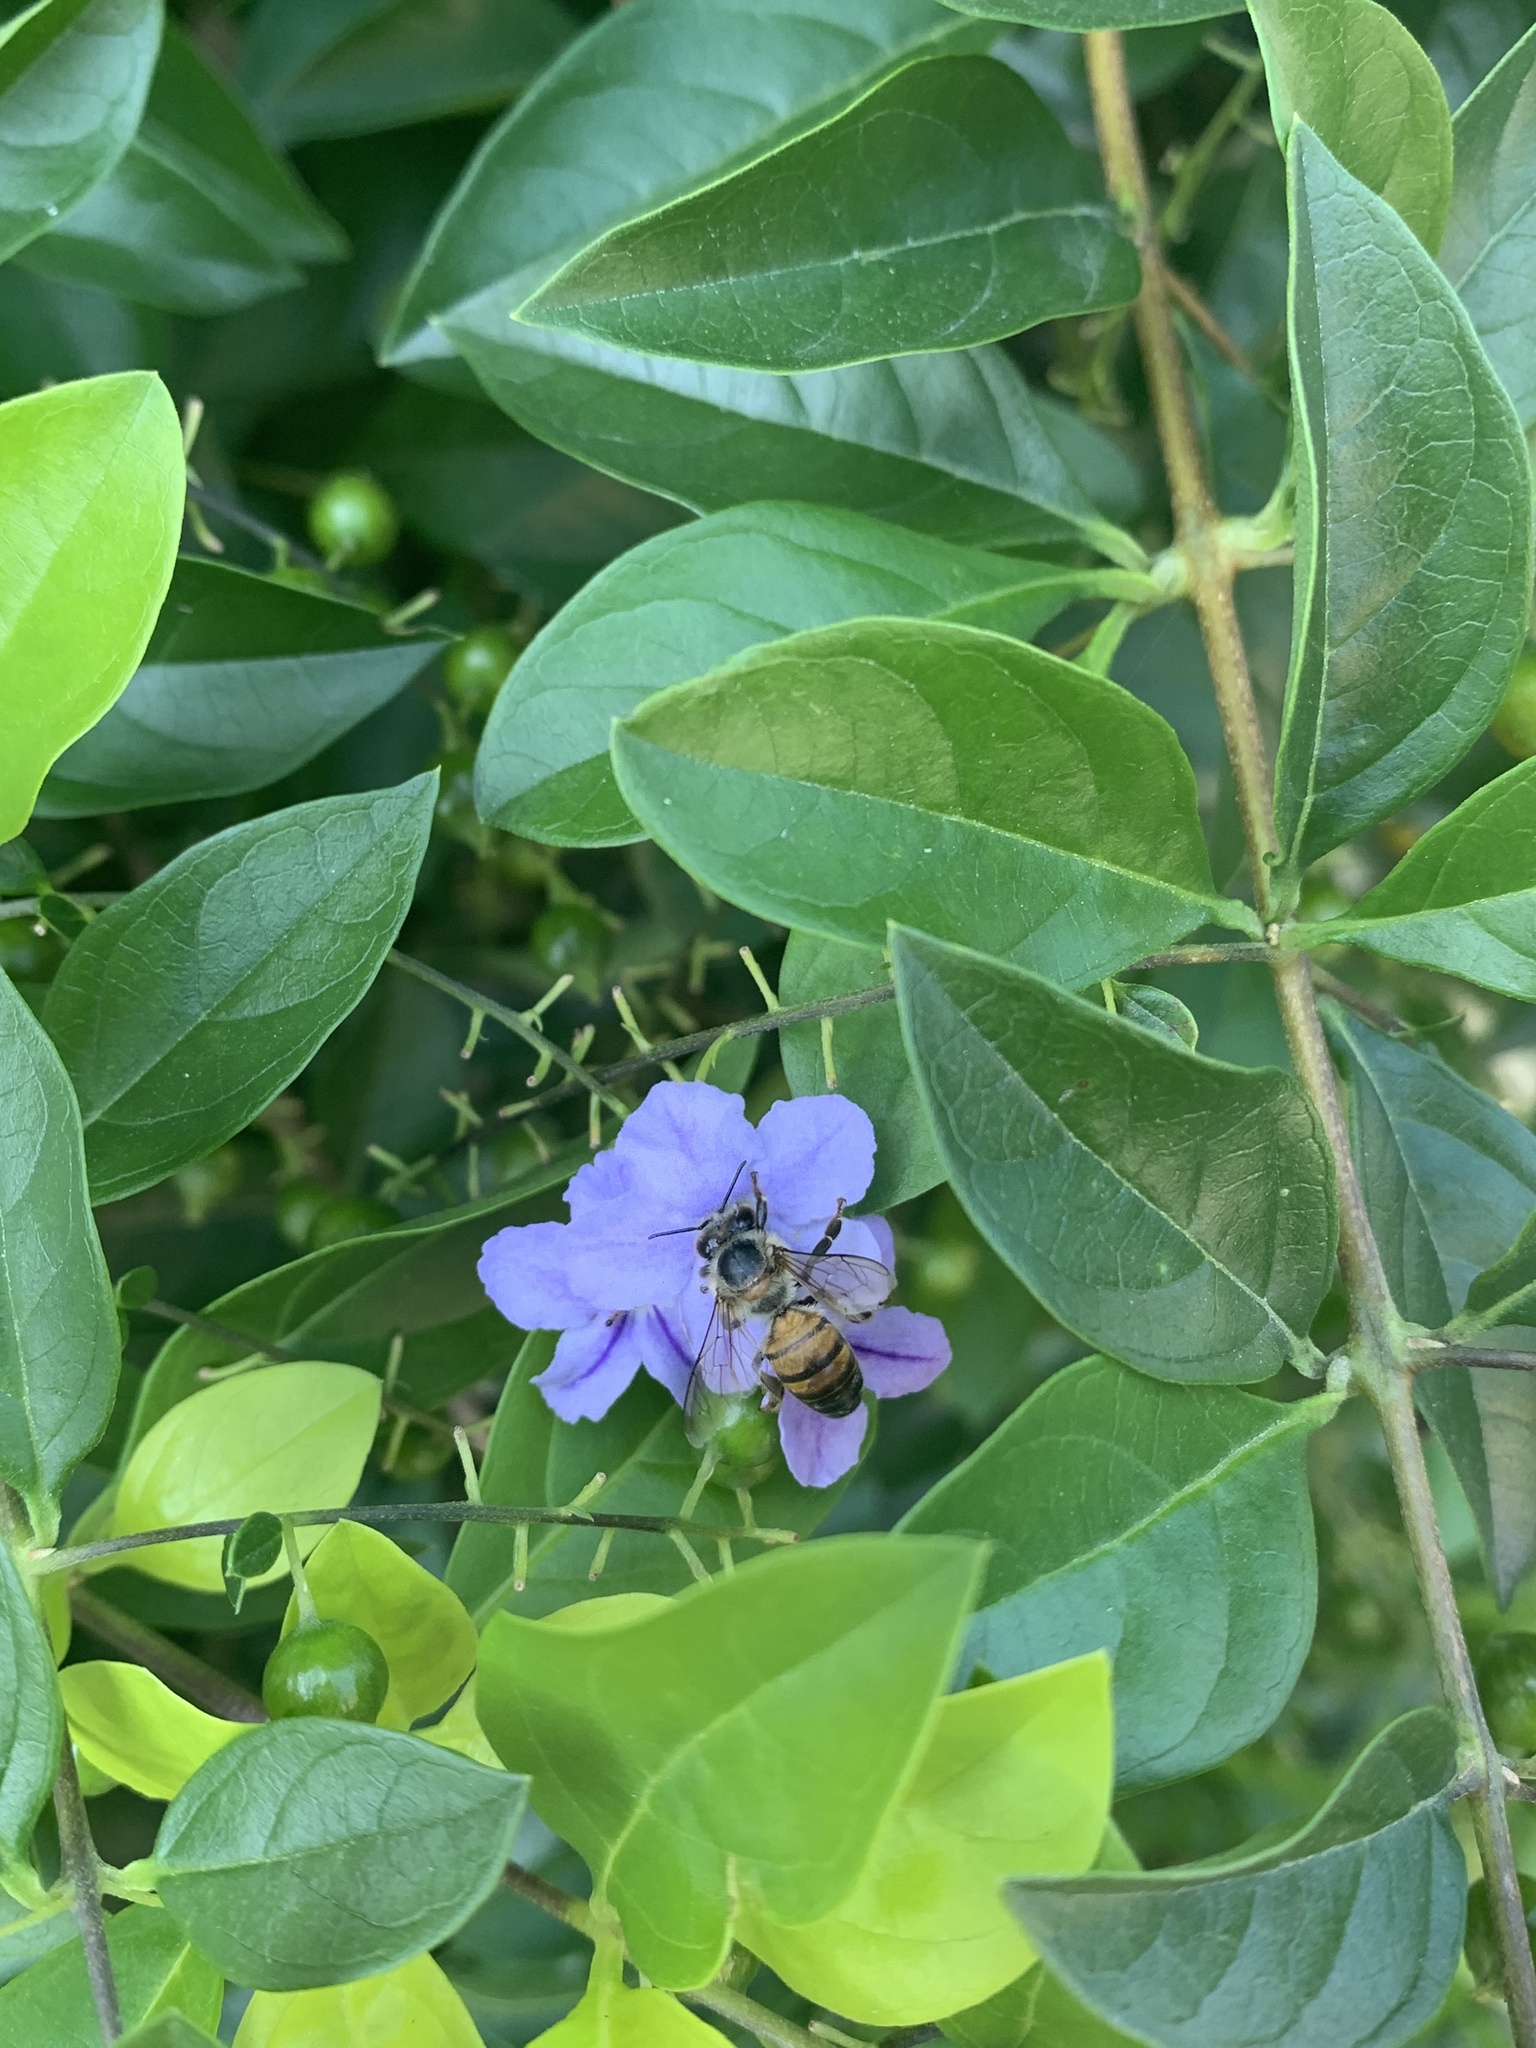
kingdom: Animalia
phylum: Arthropoda
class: Insecta
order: Hymenoptera
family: Apidae
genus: Apis
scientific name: Apis mellifera
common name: Honey bee
